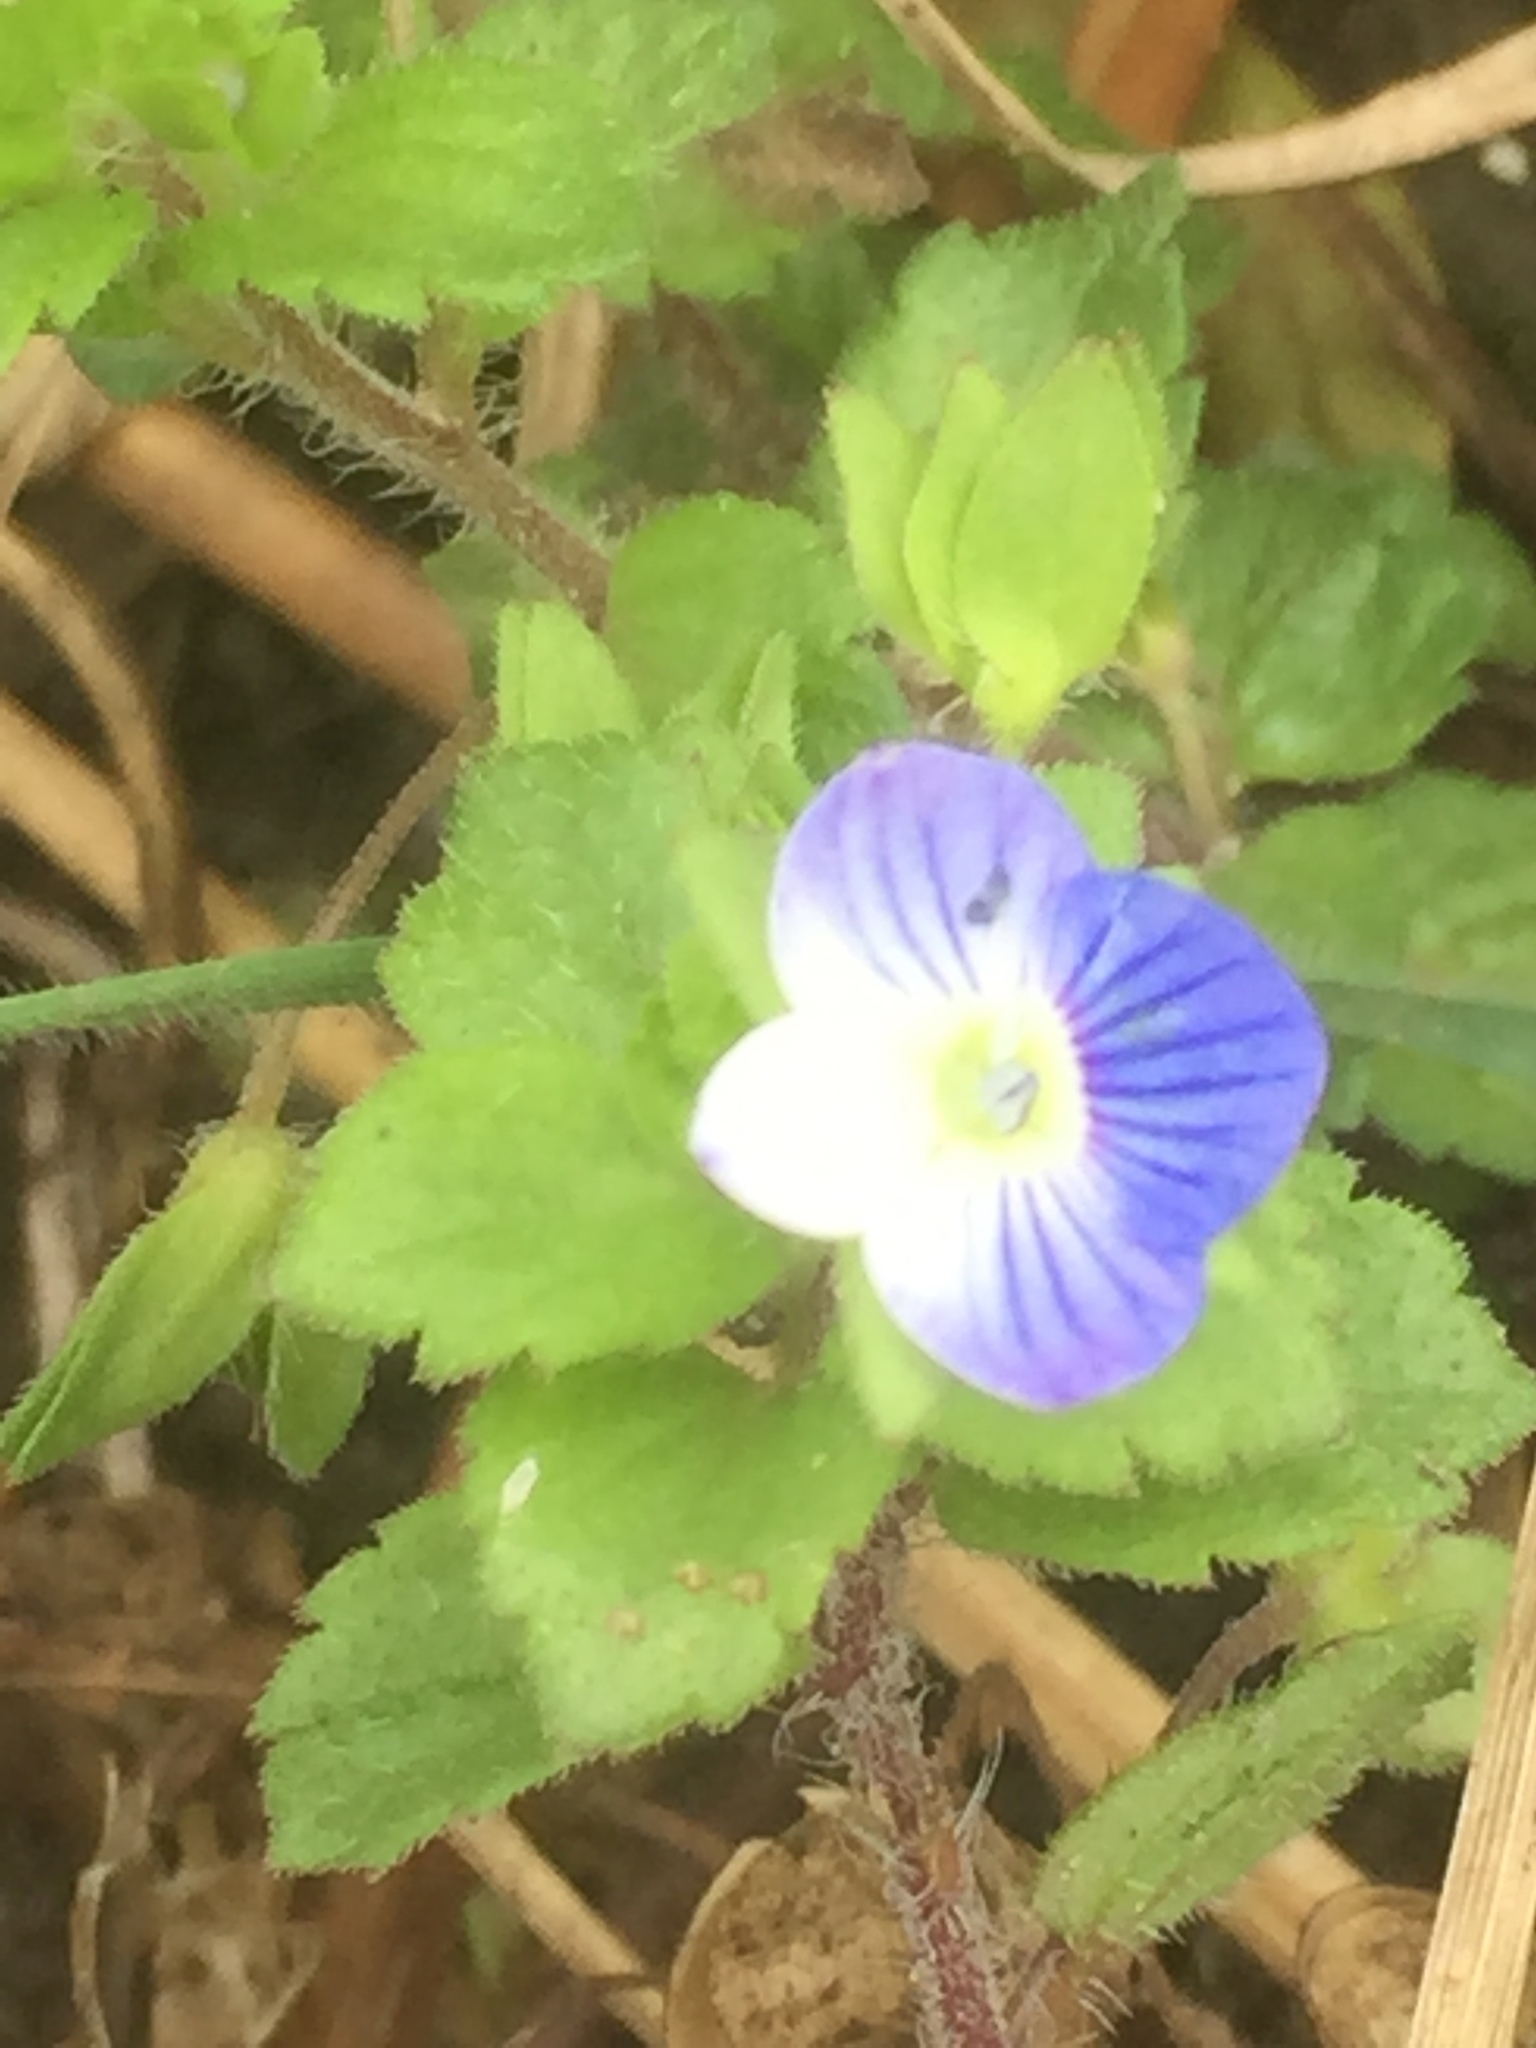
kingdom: Plantae
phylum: Tracheophyta
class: Magnoliopsida
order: Lamiales
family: Plantaginaceae
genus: Veronica
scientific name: Veronica persica
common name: Common field-speedwell
